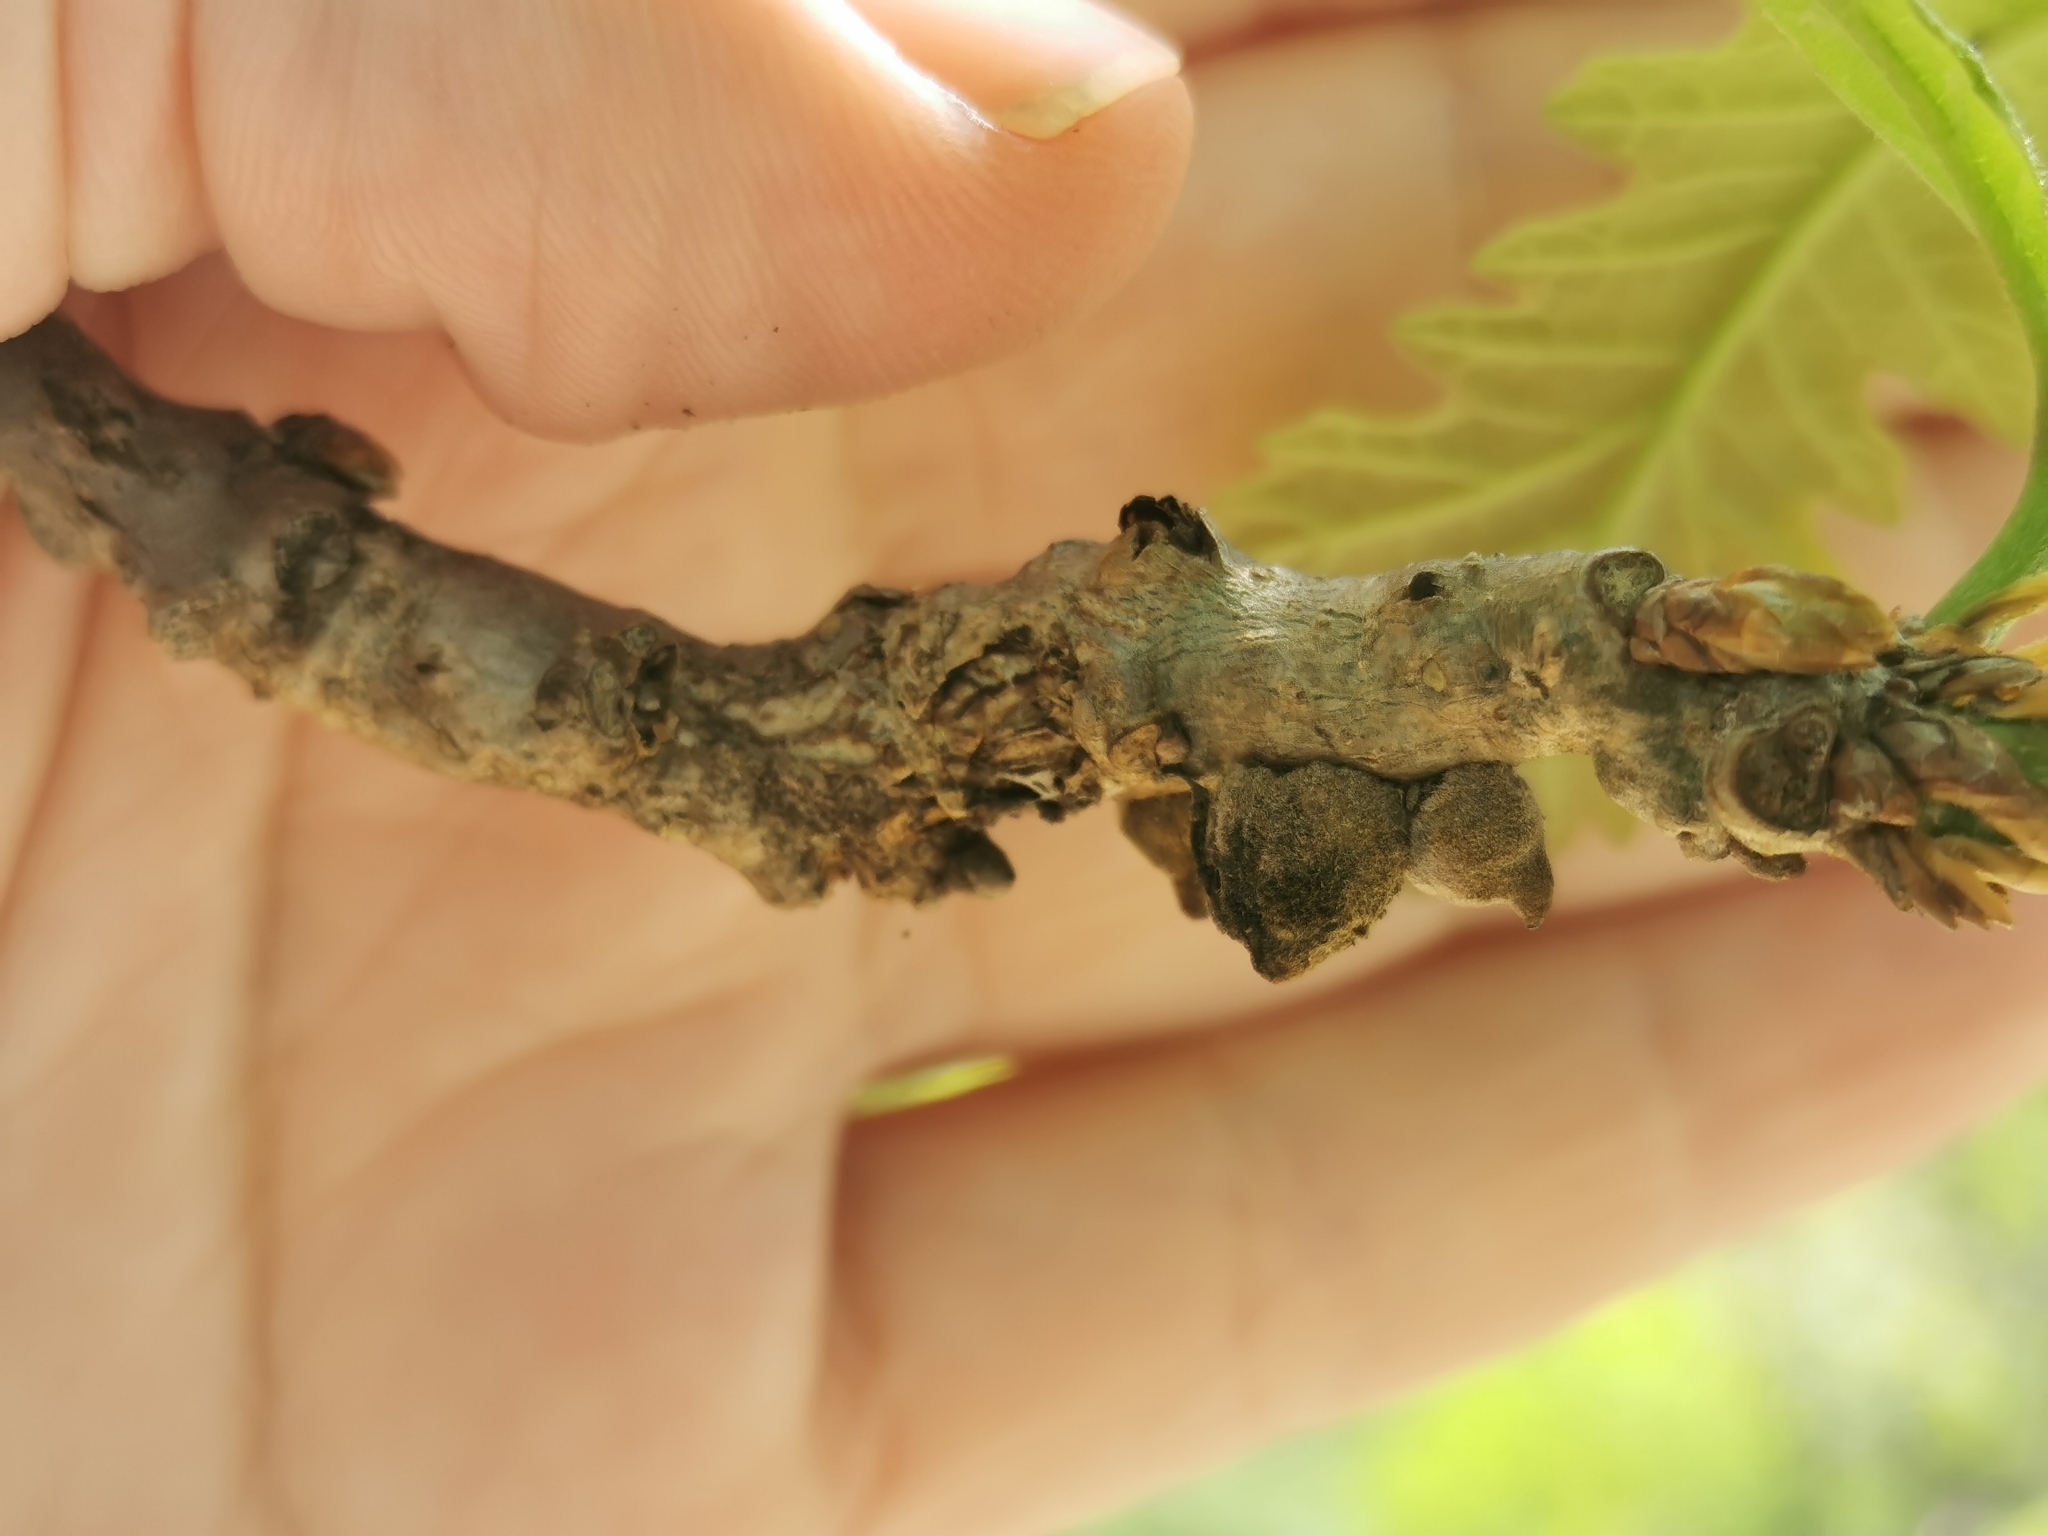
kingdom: Animalia
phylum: Arthropoda
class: Insecta
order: Hymenoptera
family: Cynipidae
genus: Disholcaspis
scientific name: Disholcaspis
